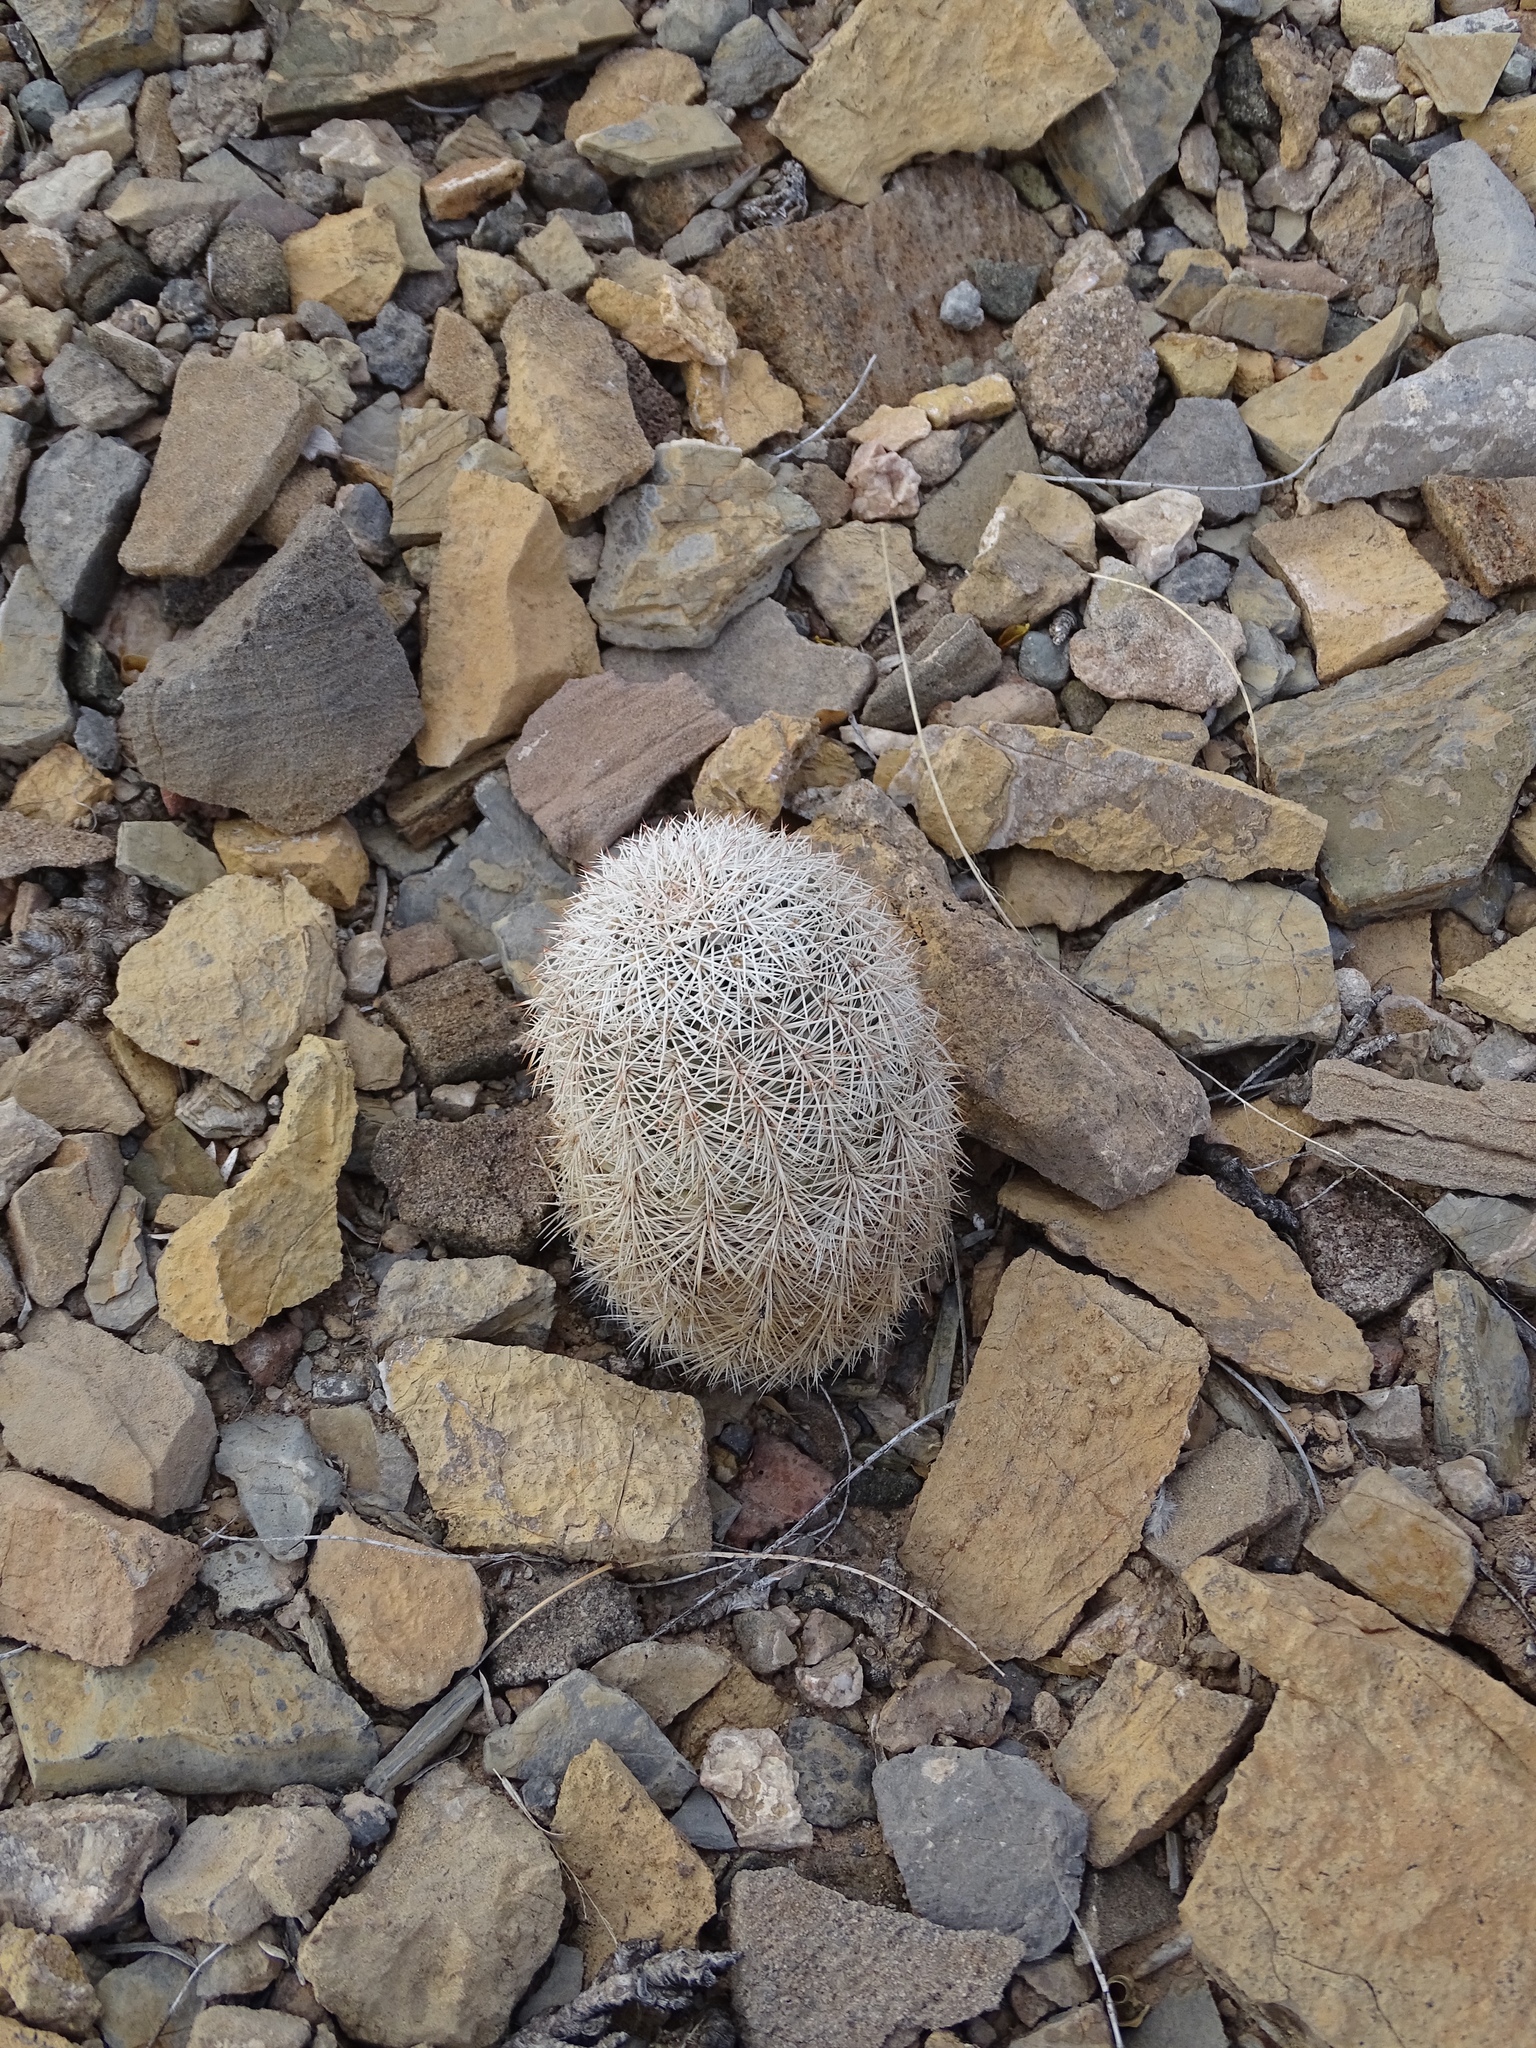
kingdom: Plantae
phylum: Tracheophyta
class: Magnoliopsida
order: Caryophyllales
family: Cactaceae
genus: Echinocereus
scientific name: Echinocereus dasyacanthus
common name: Spiny hedgehog cactus
